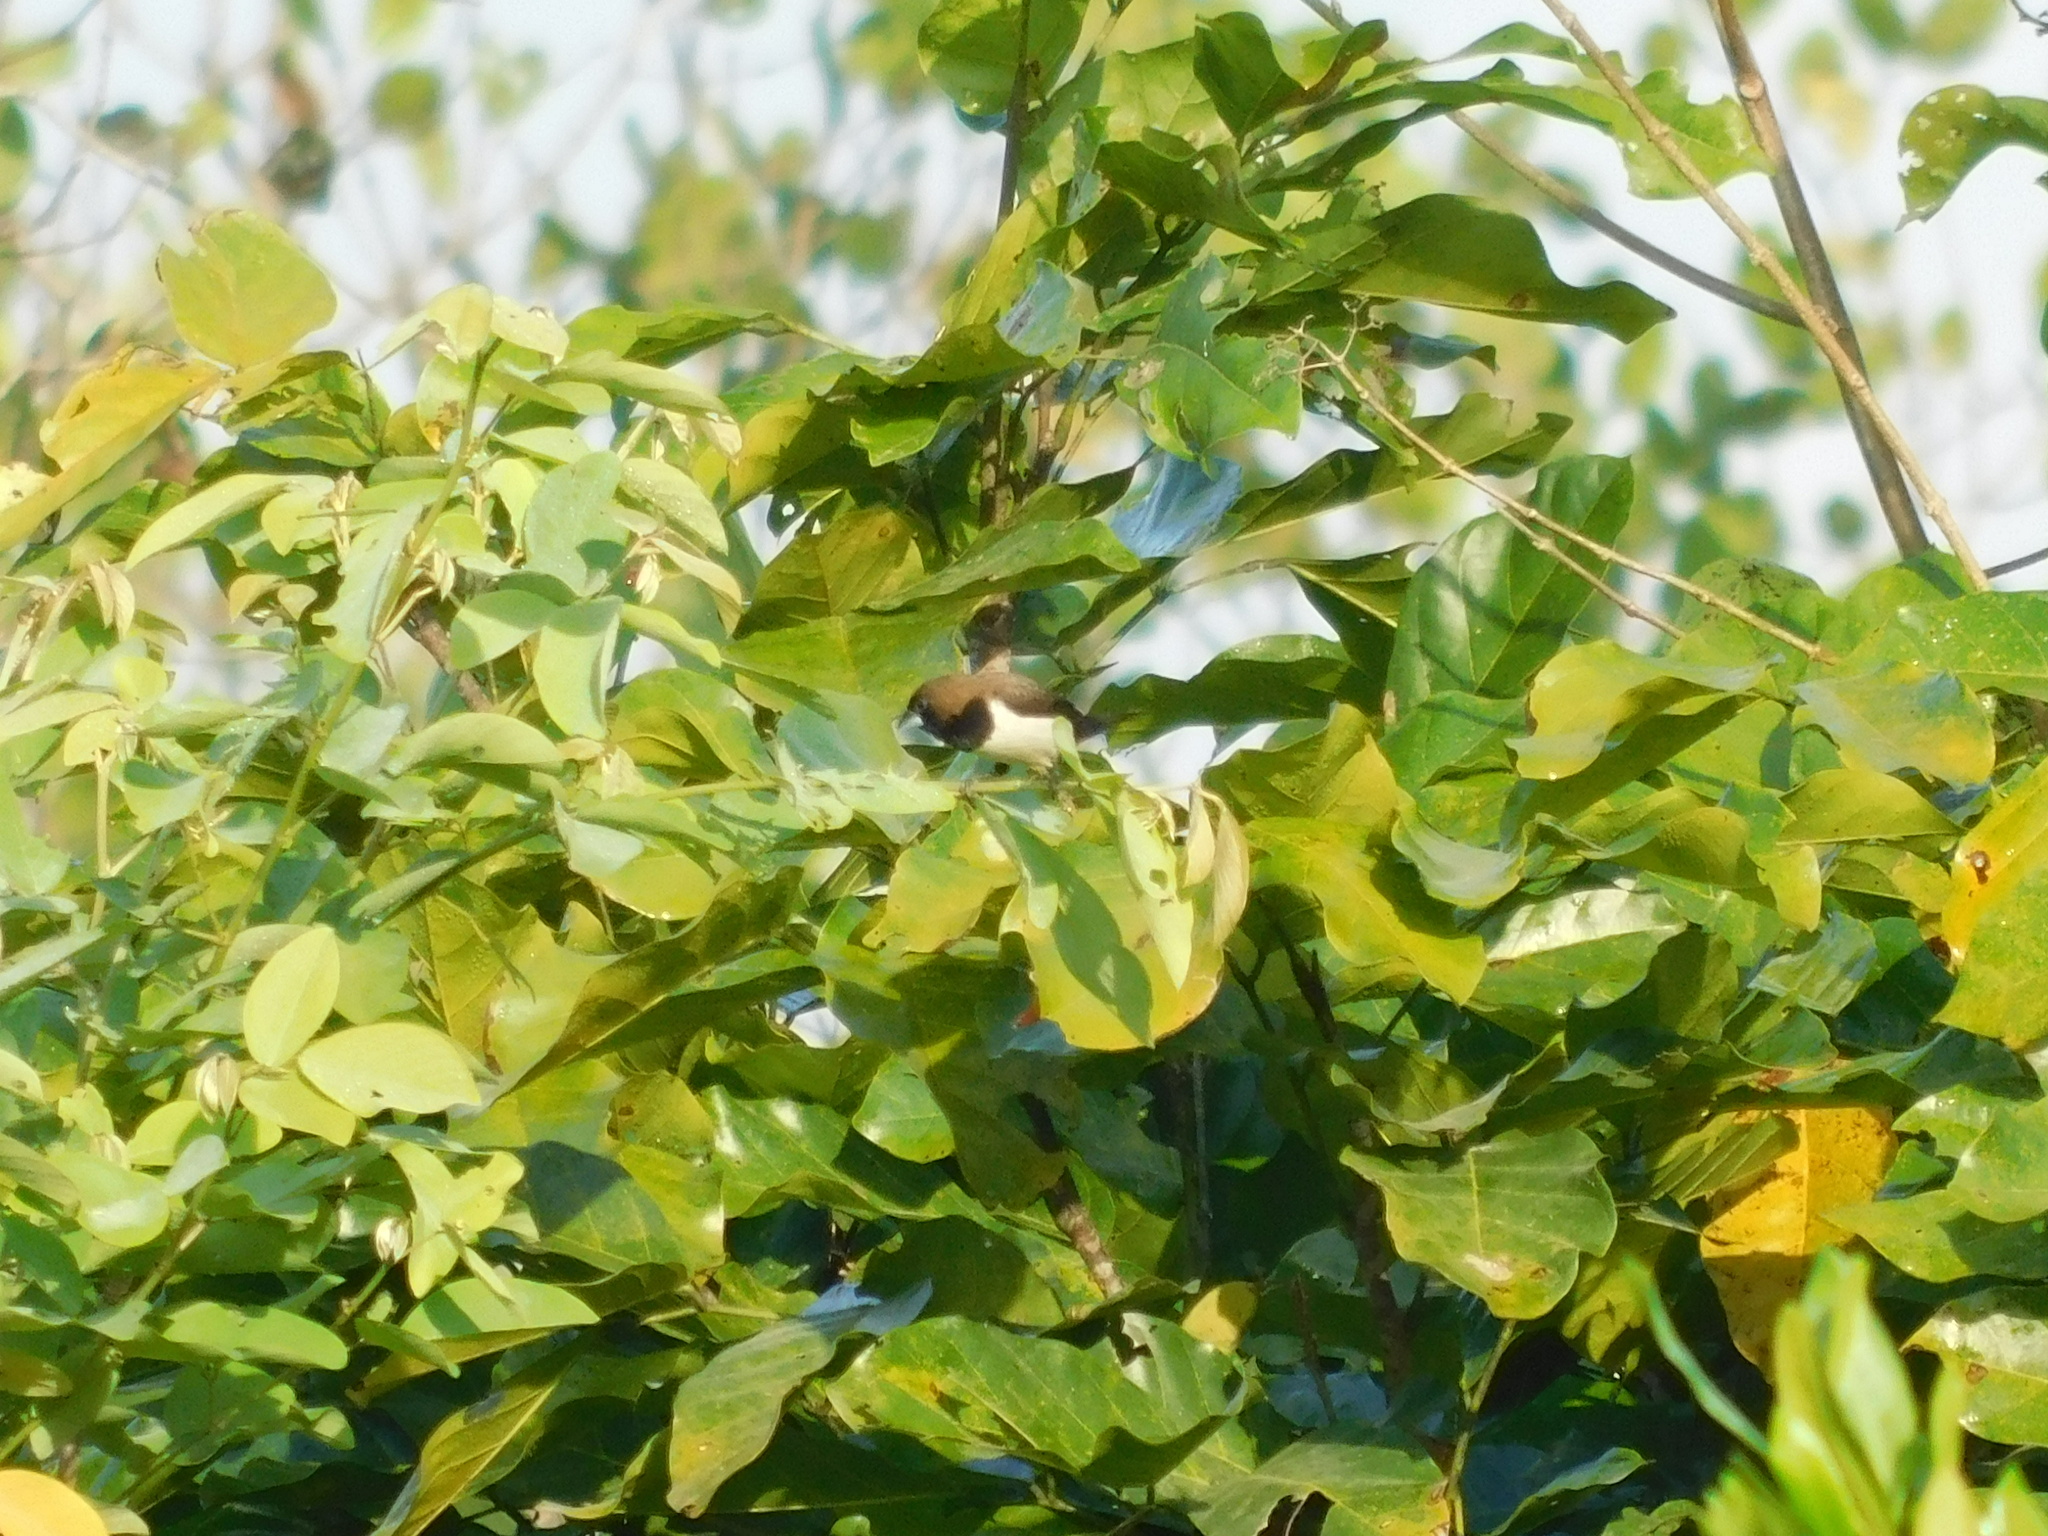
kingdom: Animalia
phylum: Chordata
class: Aves
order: Passeriformes
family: Estrildidae
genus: Lonchura
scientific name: Lonchura leucogastroides
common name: Javan munia
